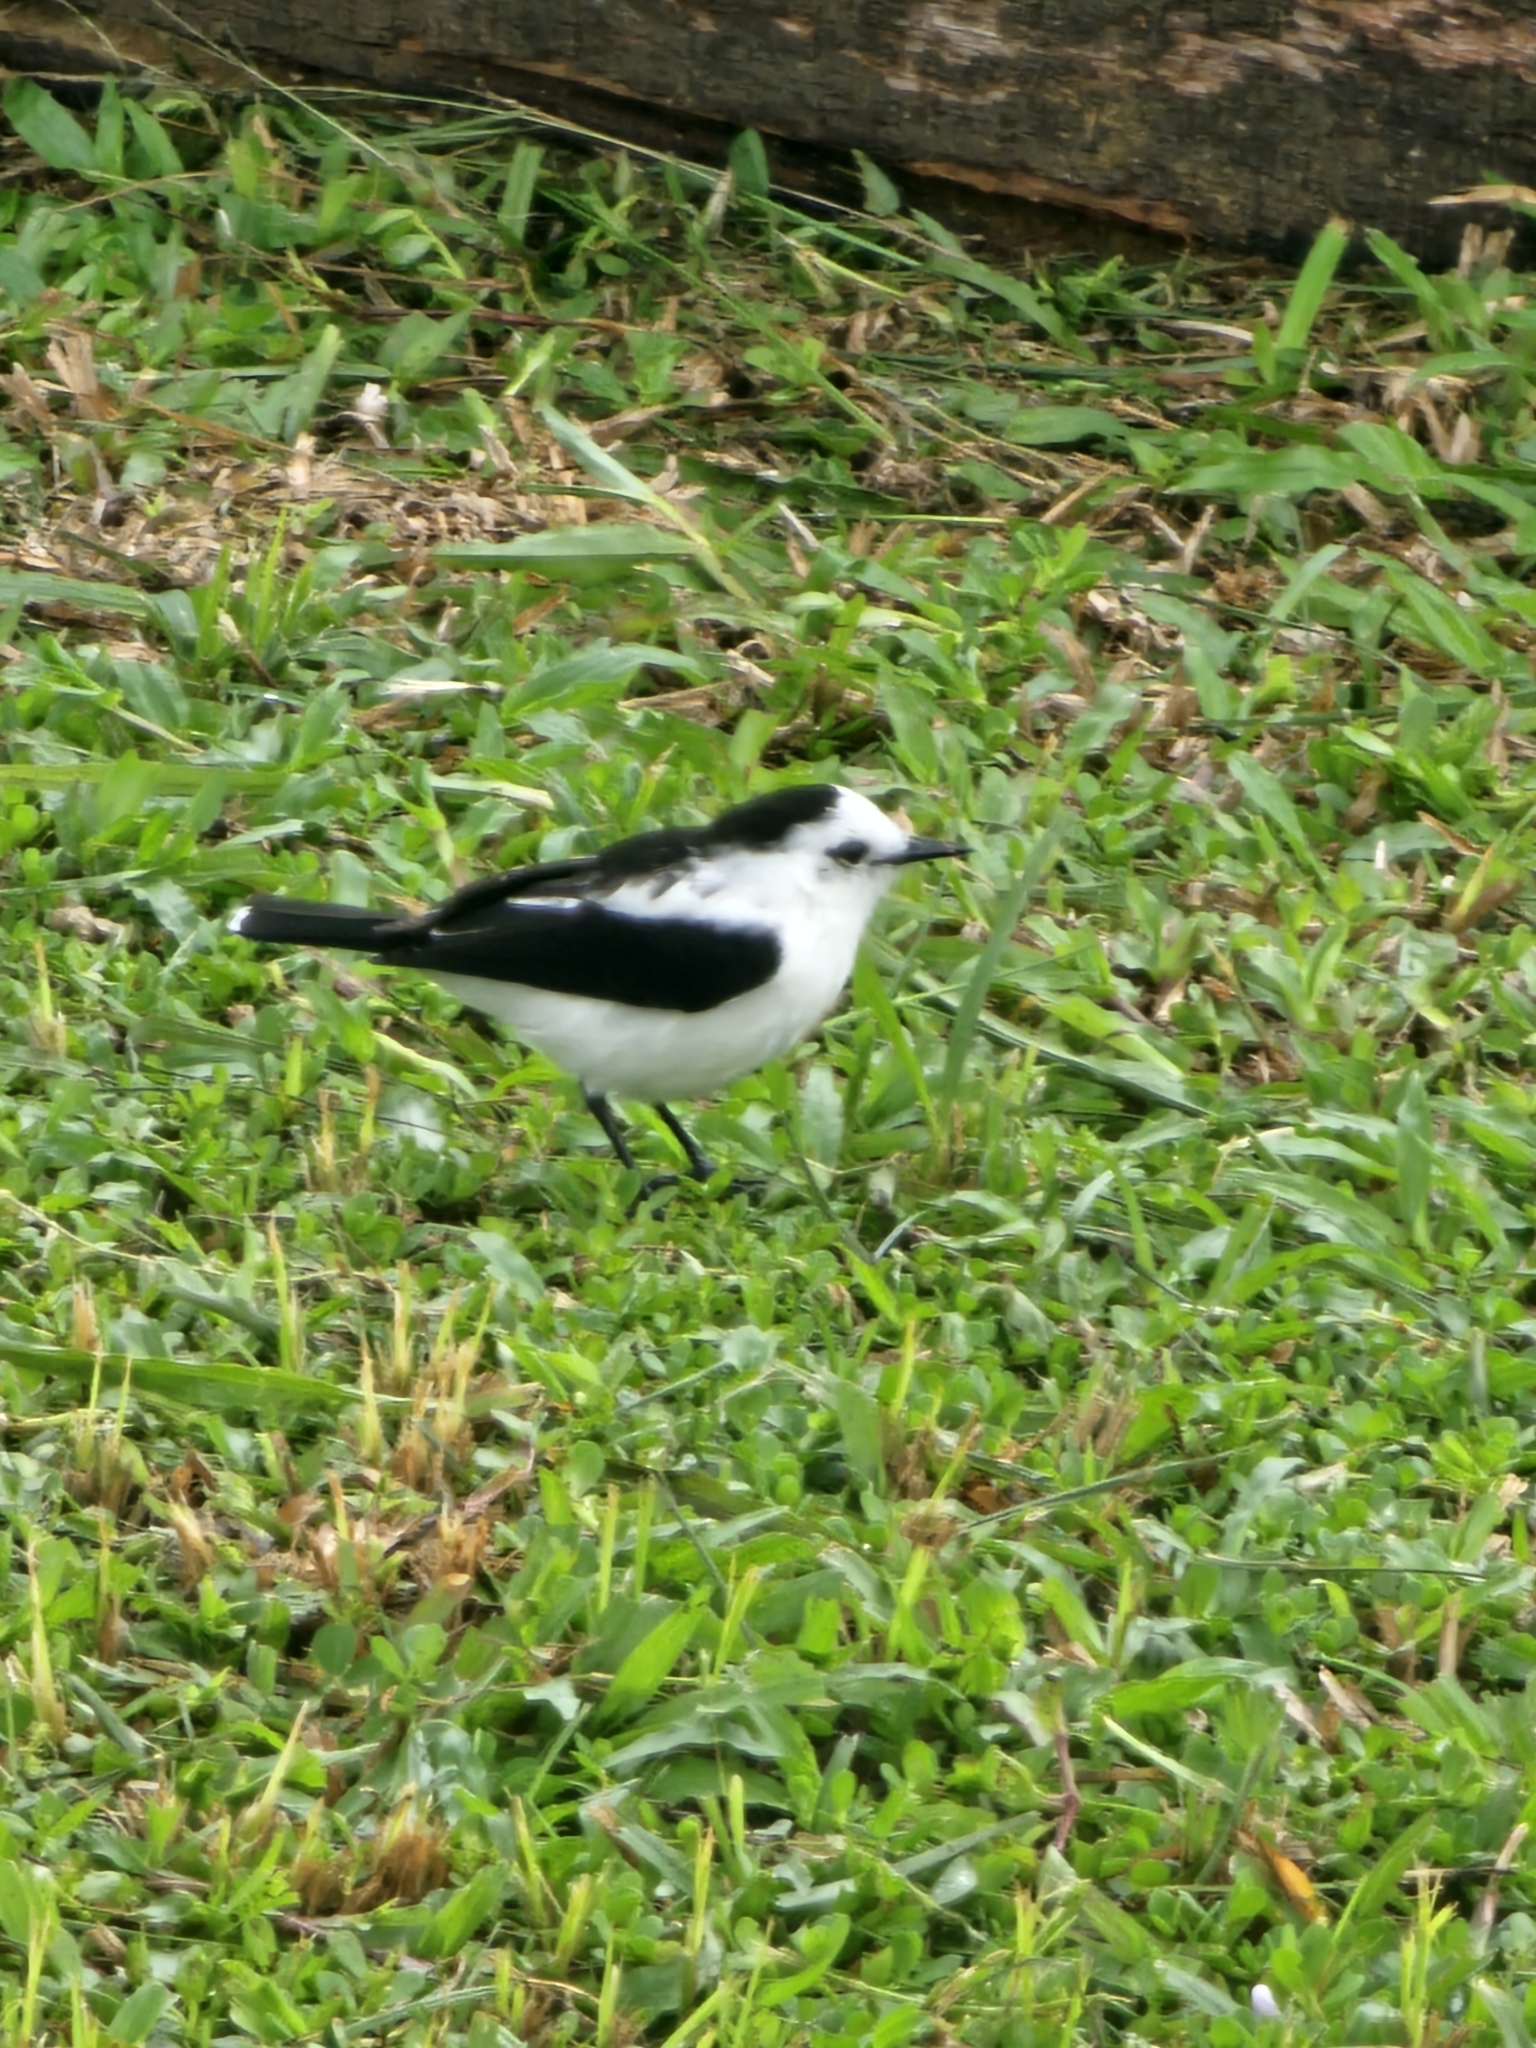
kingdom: Animalia
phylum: Chordata
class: Aves
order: Passeriformes
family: Tyrannidae
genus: Fluvicola
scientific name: Fluvicola pica
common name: Pied water-tyrant
